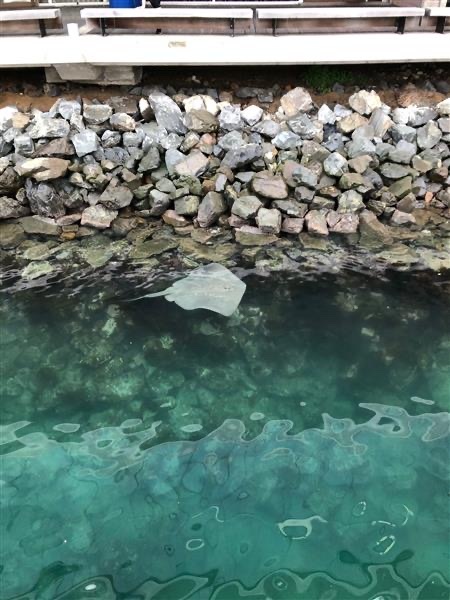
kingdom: Animalia
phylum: Chordata
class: Elasmobranchii
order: Myliobatiformes
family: Dasyatidae
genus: Bathytoshia
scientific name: Bathytoshia brevicaudata
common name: Short-tail stingray
